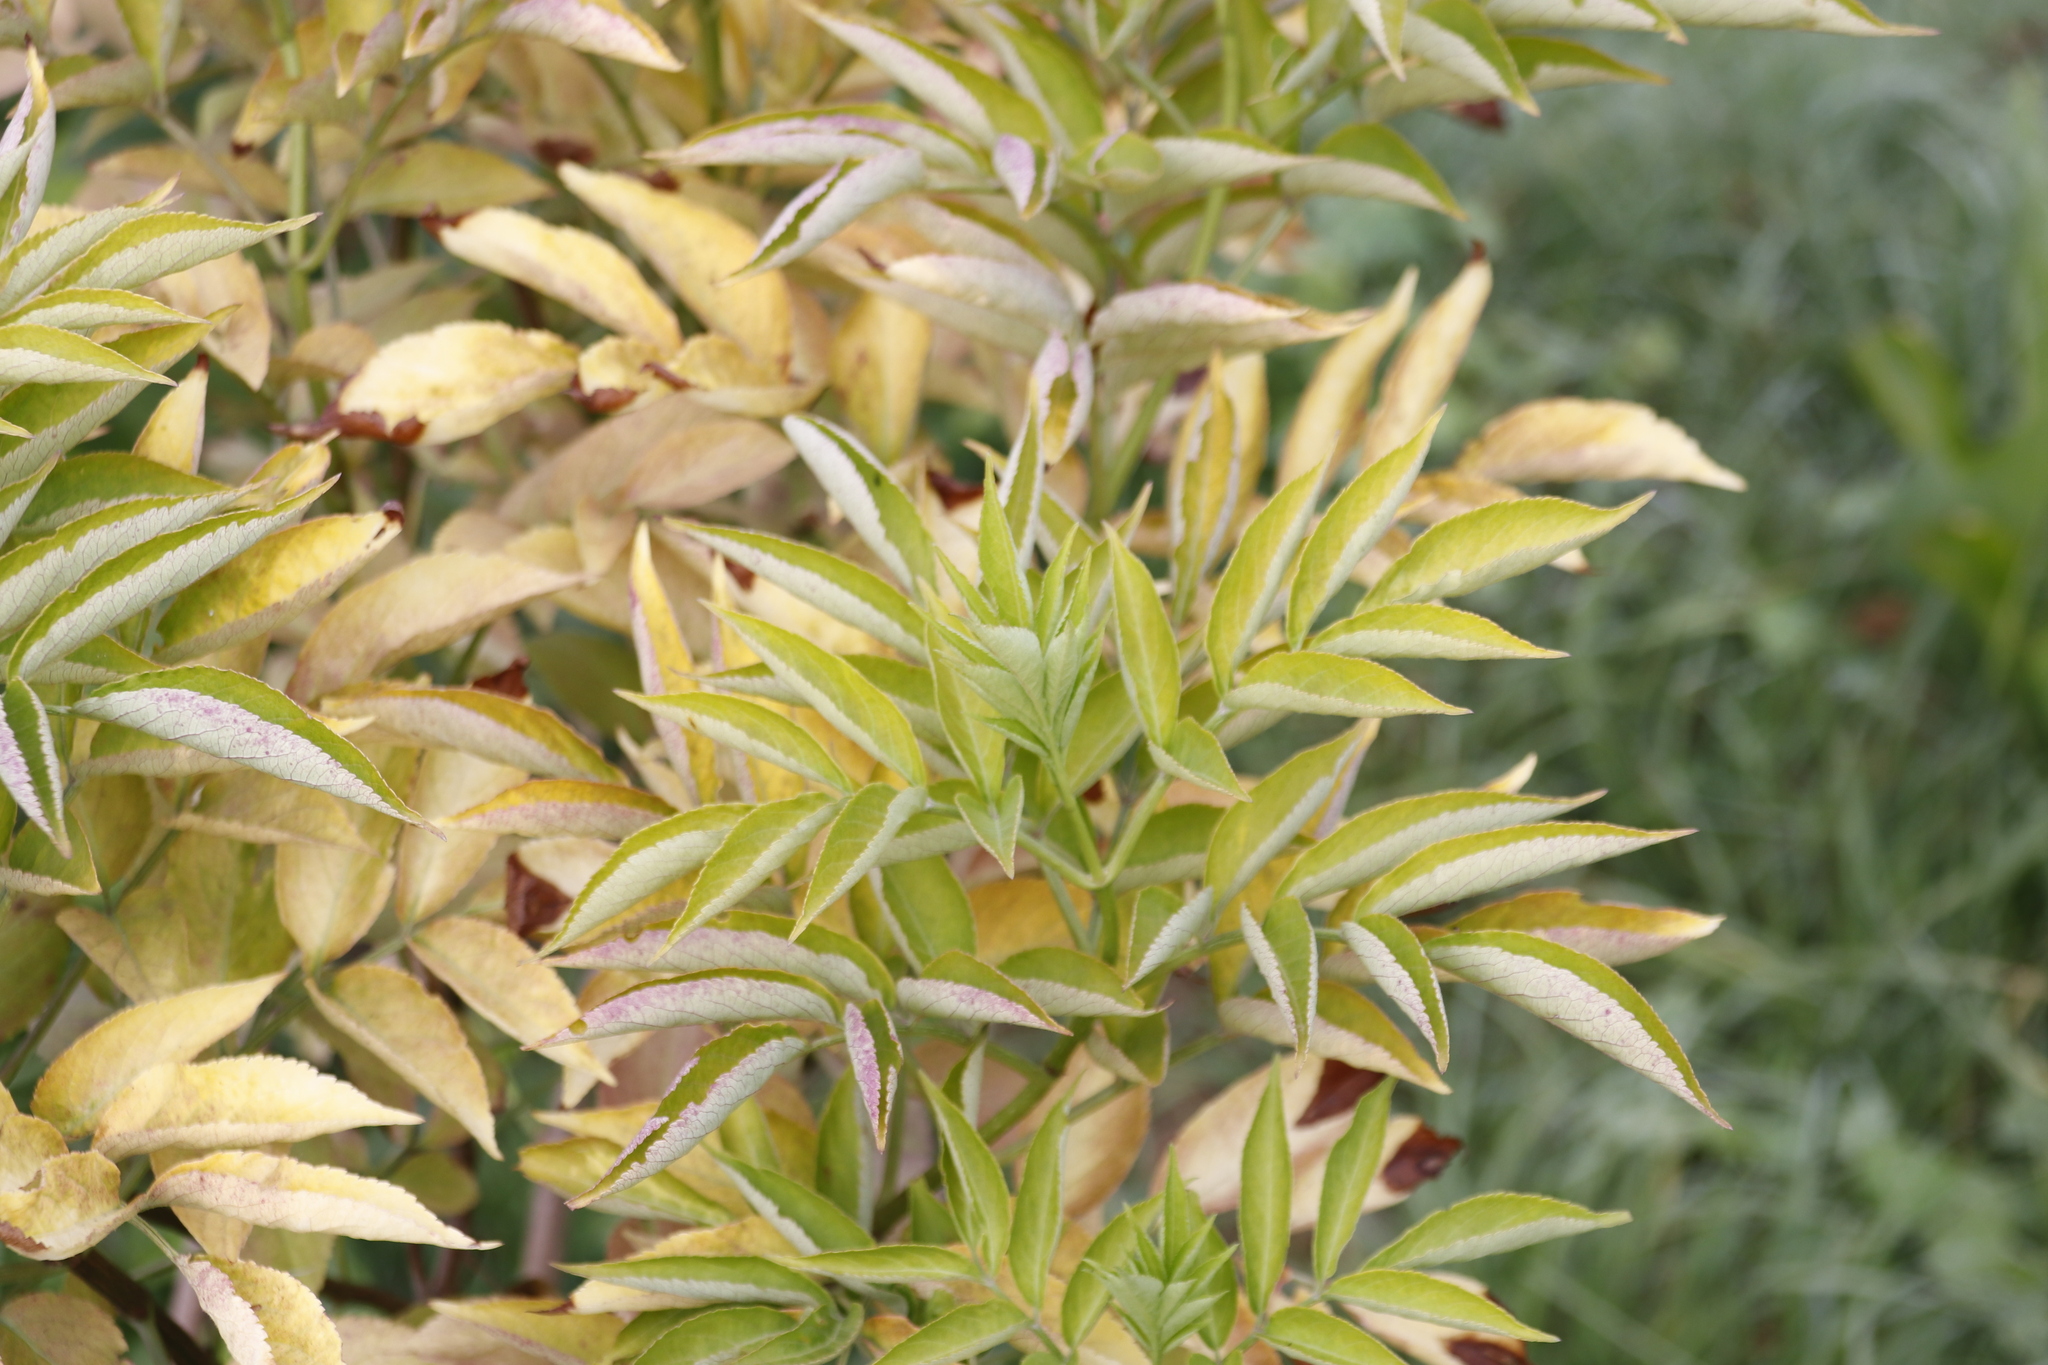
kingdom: Plantae
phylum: Tracheophyta
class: Magnoliopsida
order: Dipsacales
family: Viburnaceae
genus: Sambucus
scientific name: Sambucus nigra
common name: Elder
